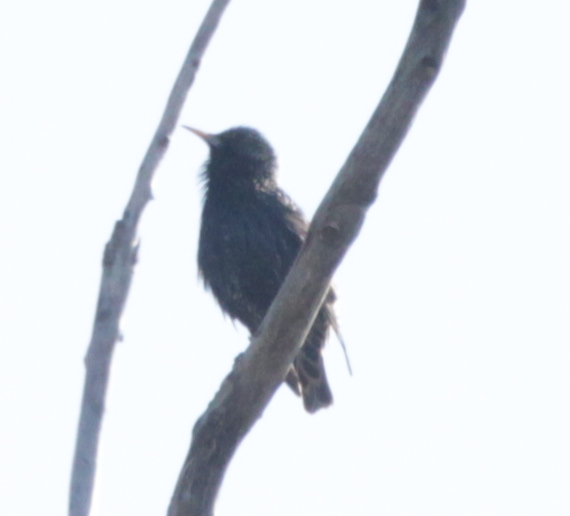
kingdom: Animalia
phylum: Chordata
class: Aves
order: Passeriformes
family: Sturnidae
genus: Sturnus
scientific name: Sturnus vulgaris
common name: Common starling
